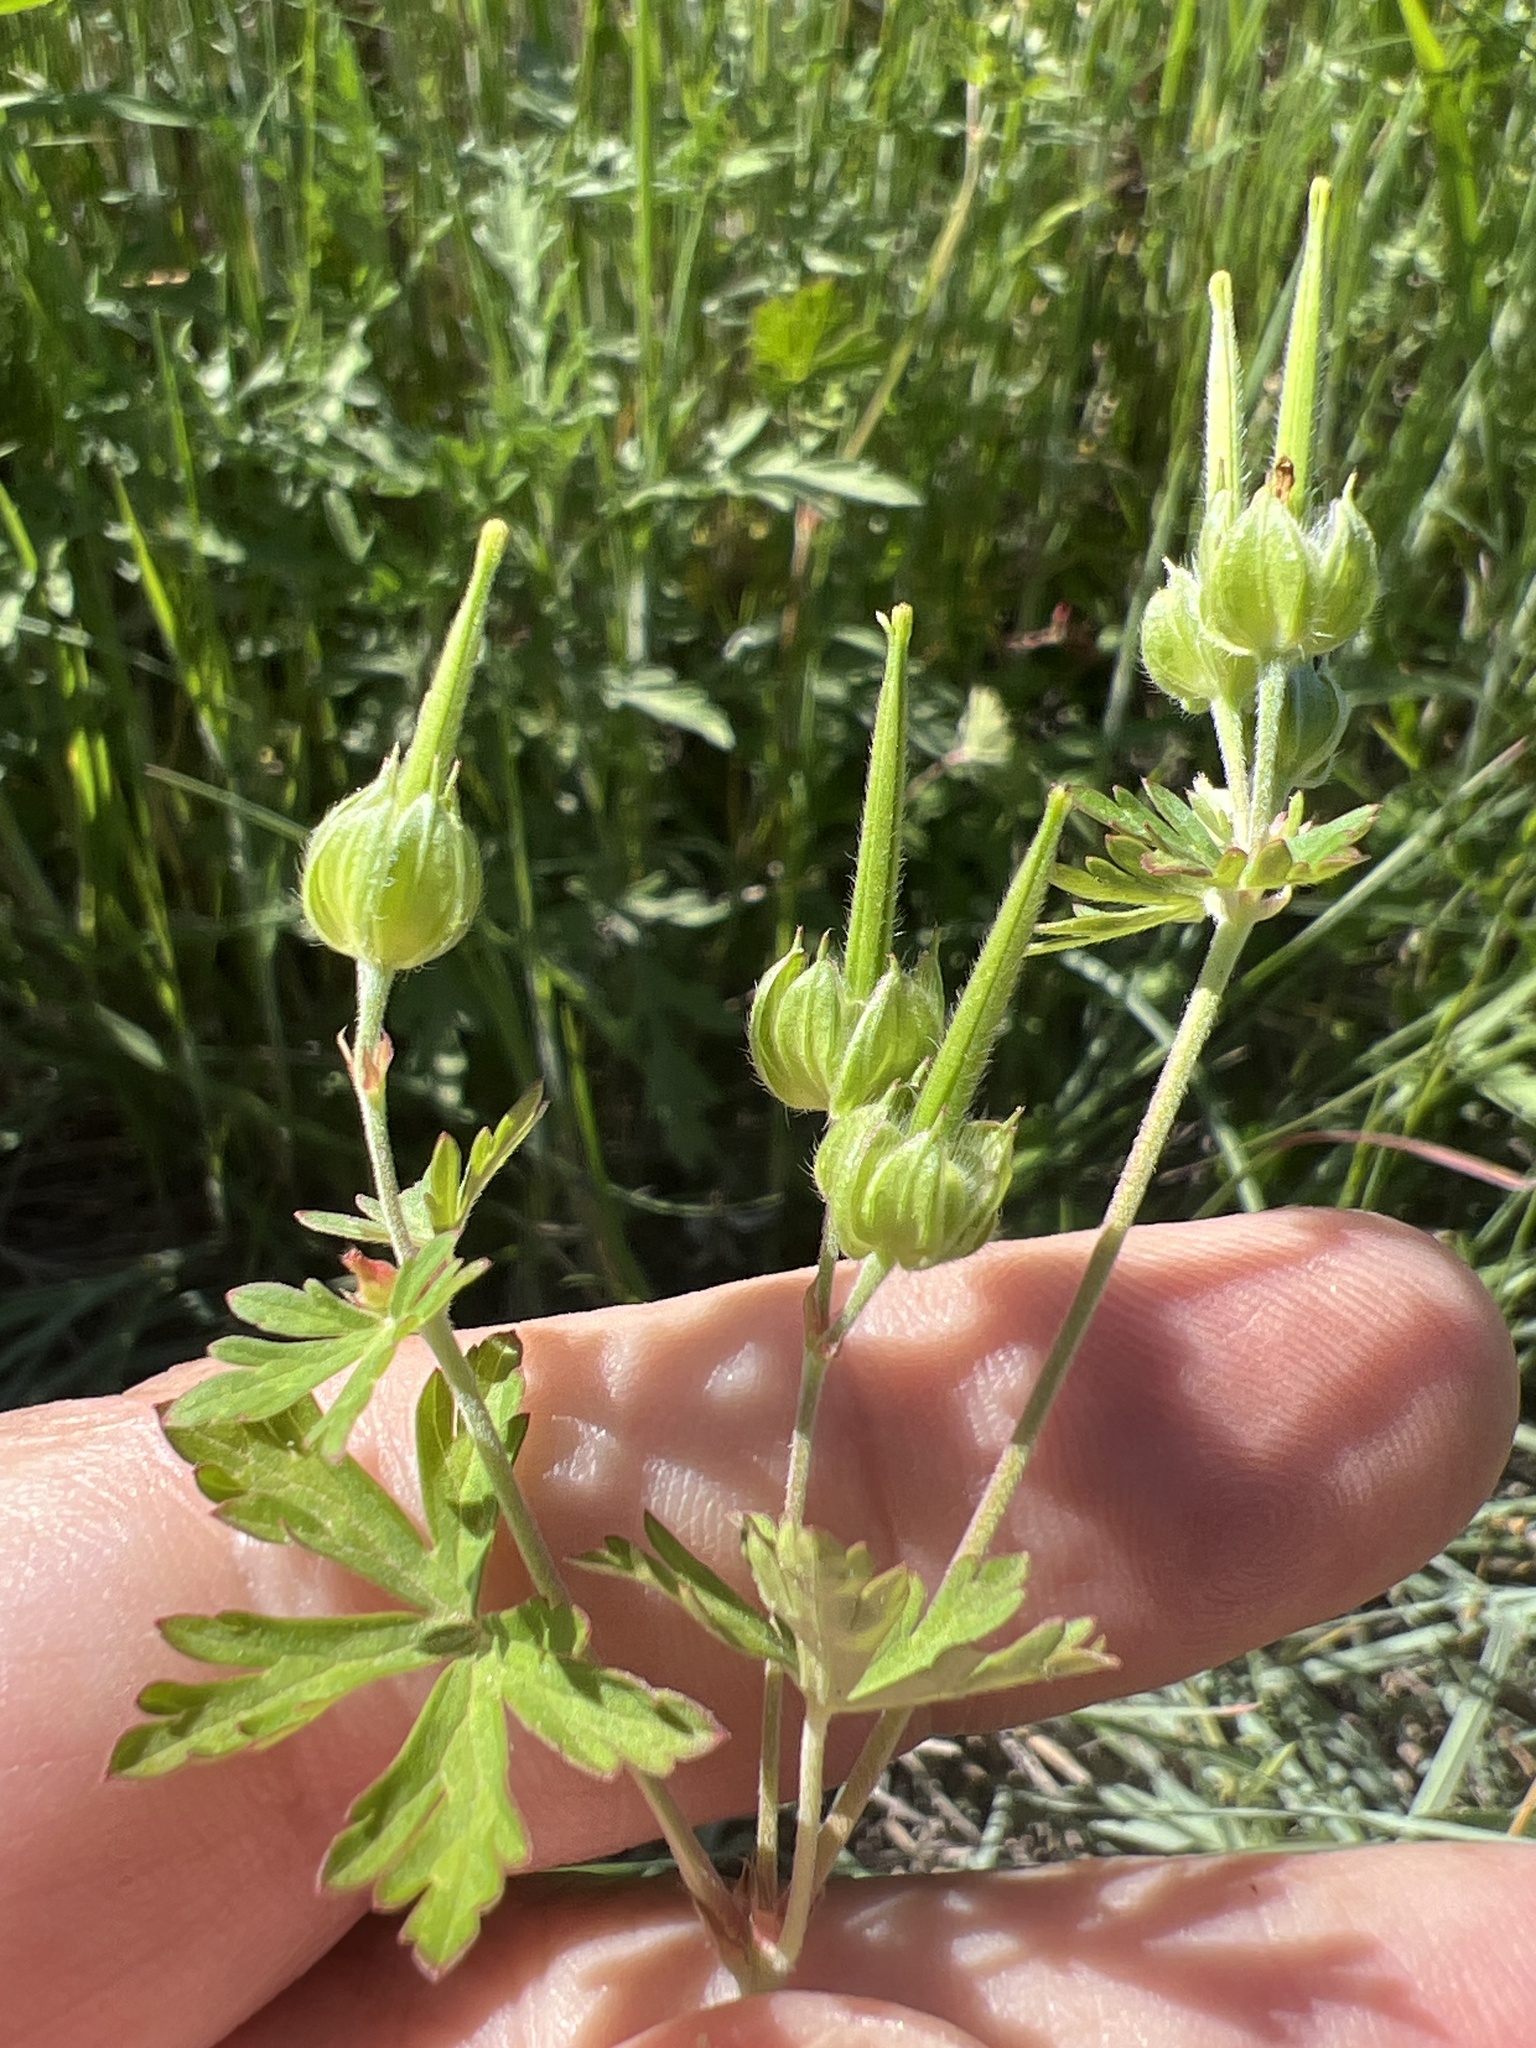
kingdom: Plantae
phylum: Tracheophyta
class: Magnoliopsida
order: Geraniales
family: Geraniaceae
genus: Geranium
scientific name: Geranium carolinianum
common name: Carolina crane's-bill
